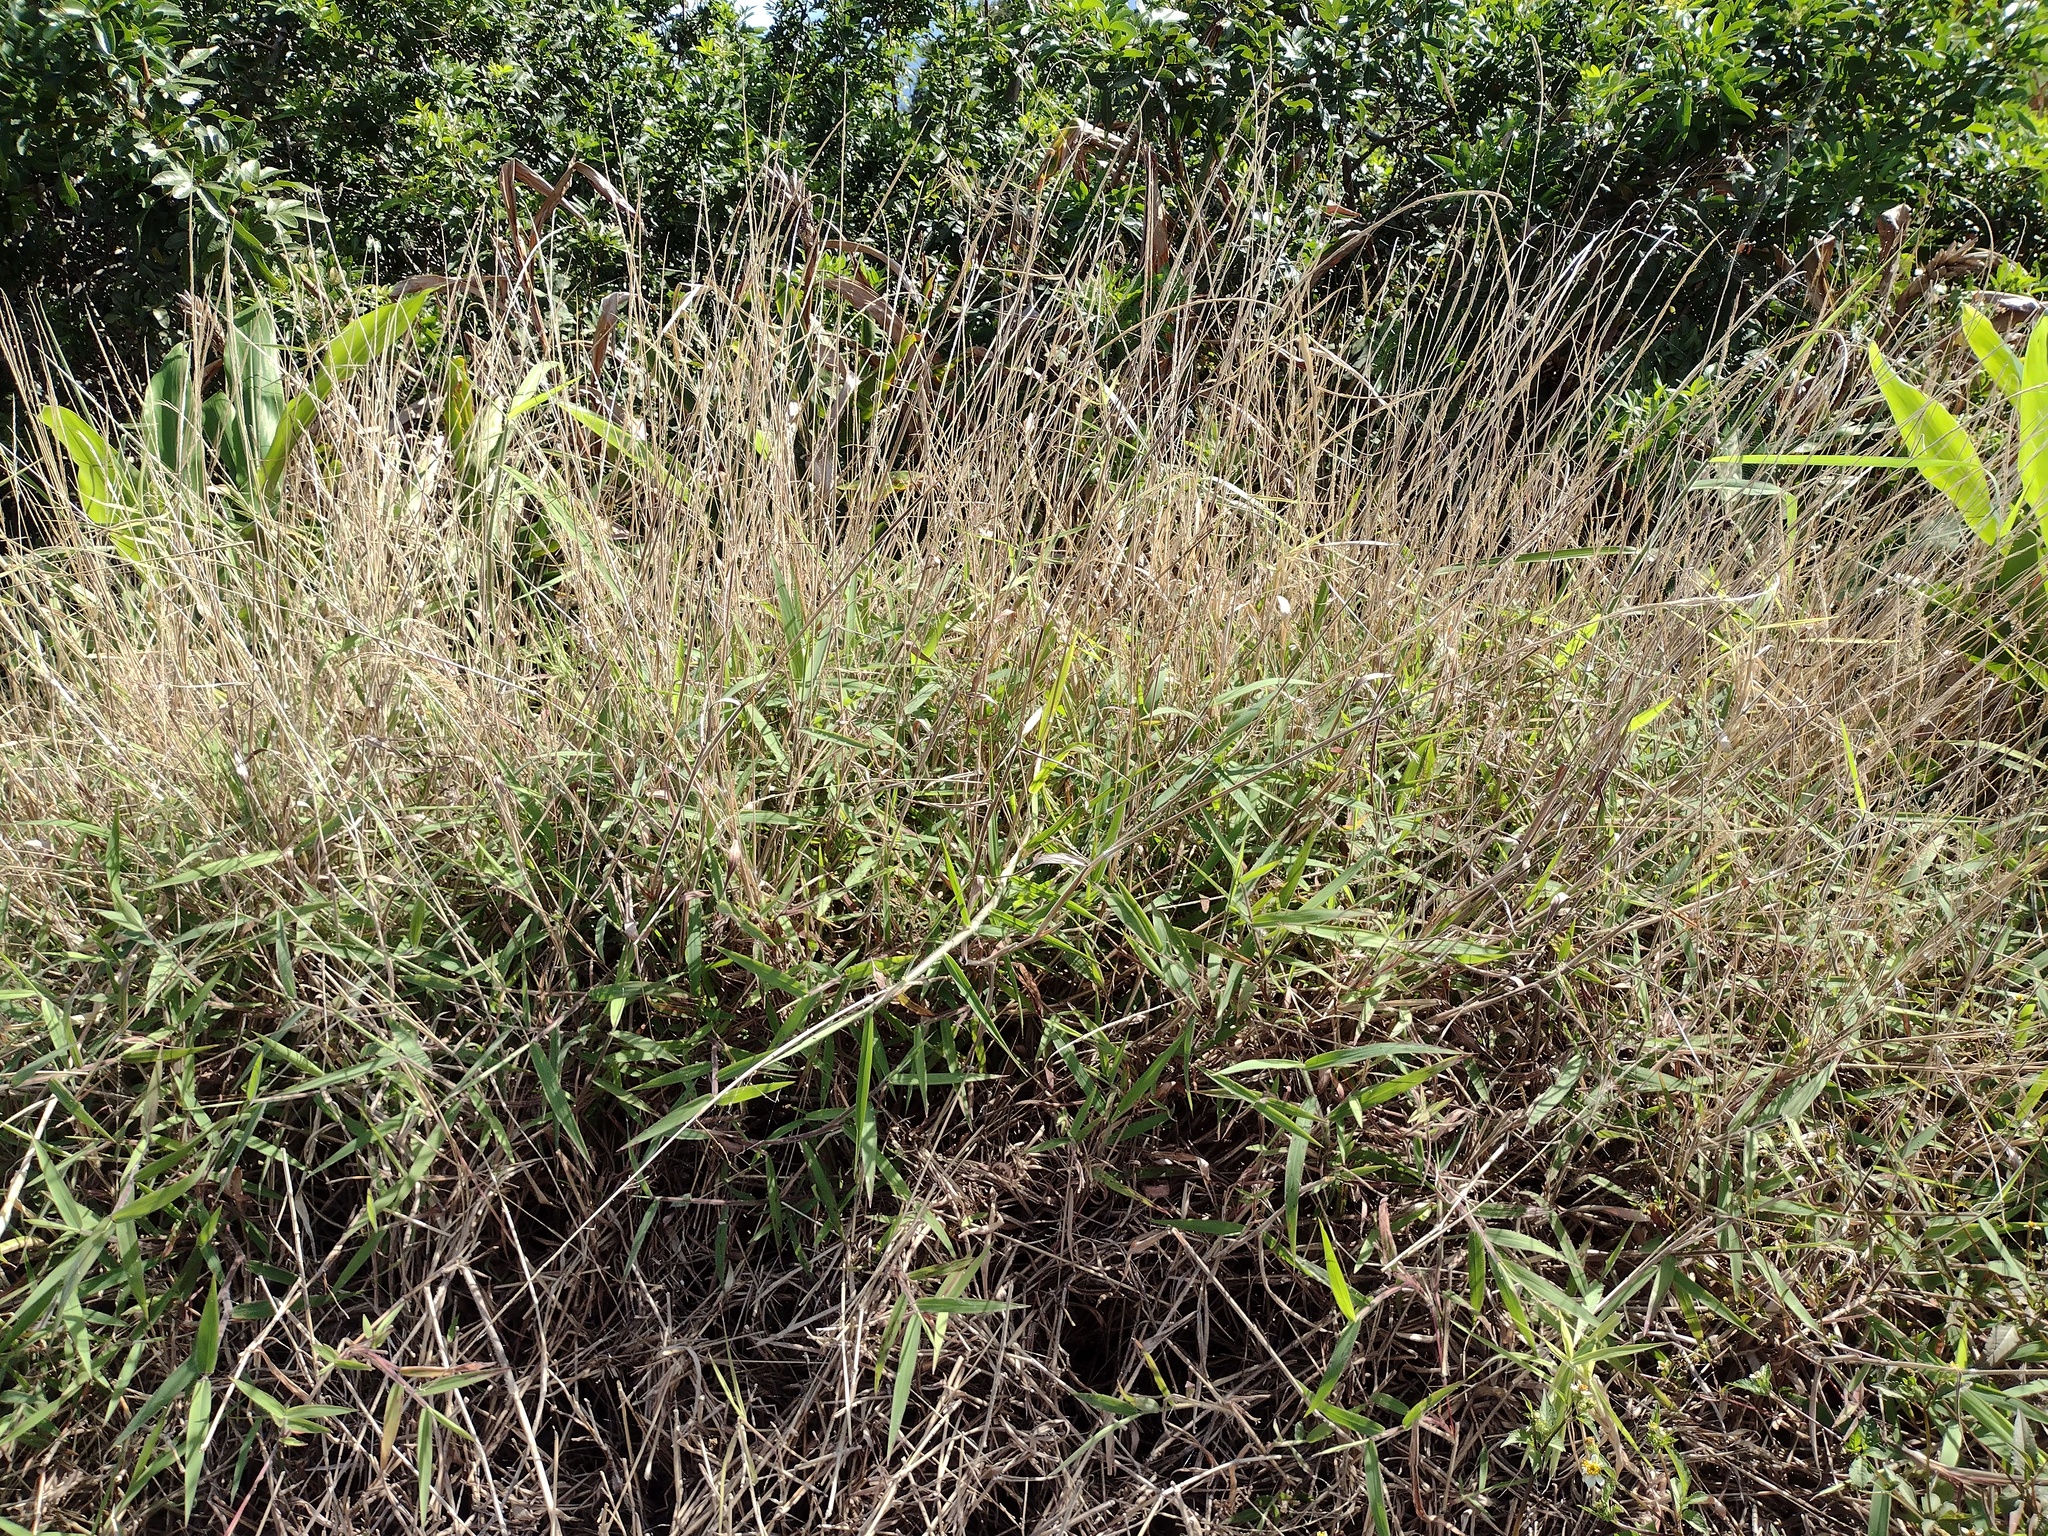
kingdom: Plantae
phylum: Tracheophyta
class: Liliopsida
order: Poales
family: Poaceae
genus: Melinis
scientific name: Melinis minutiflora
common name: Molassesgrass
